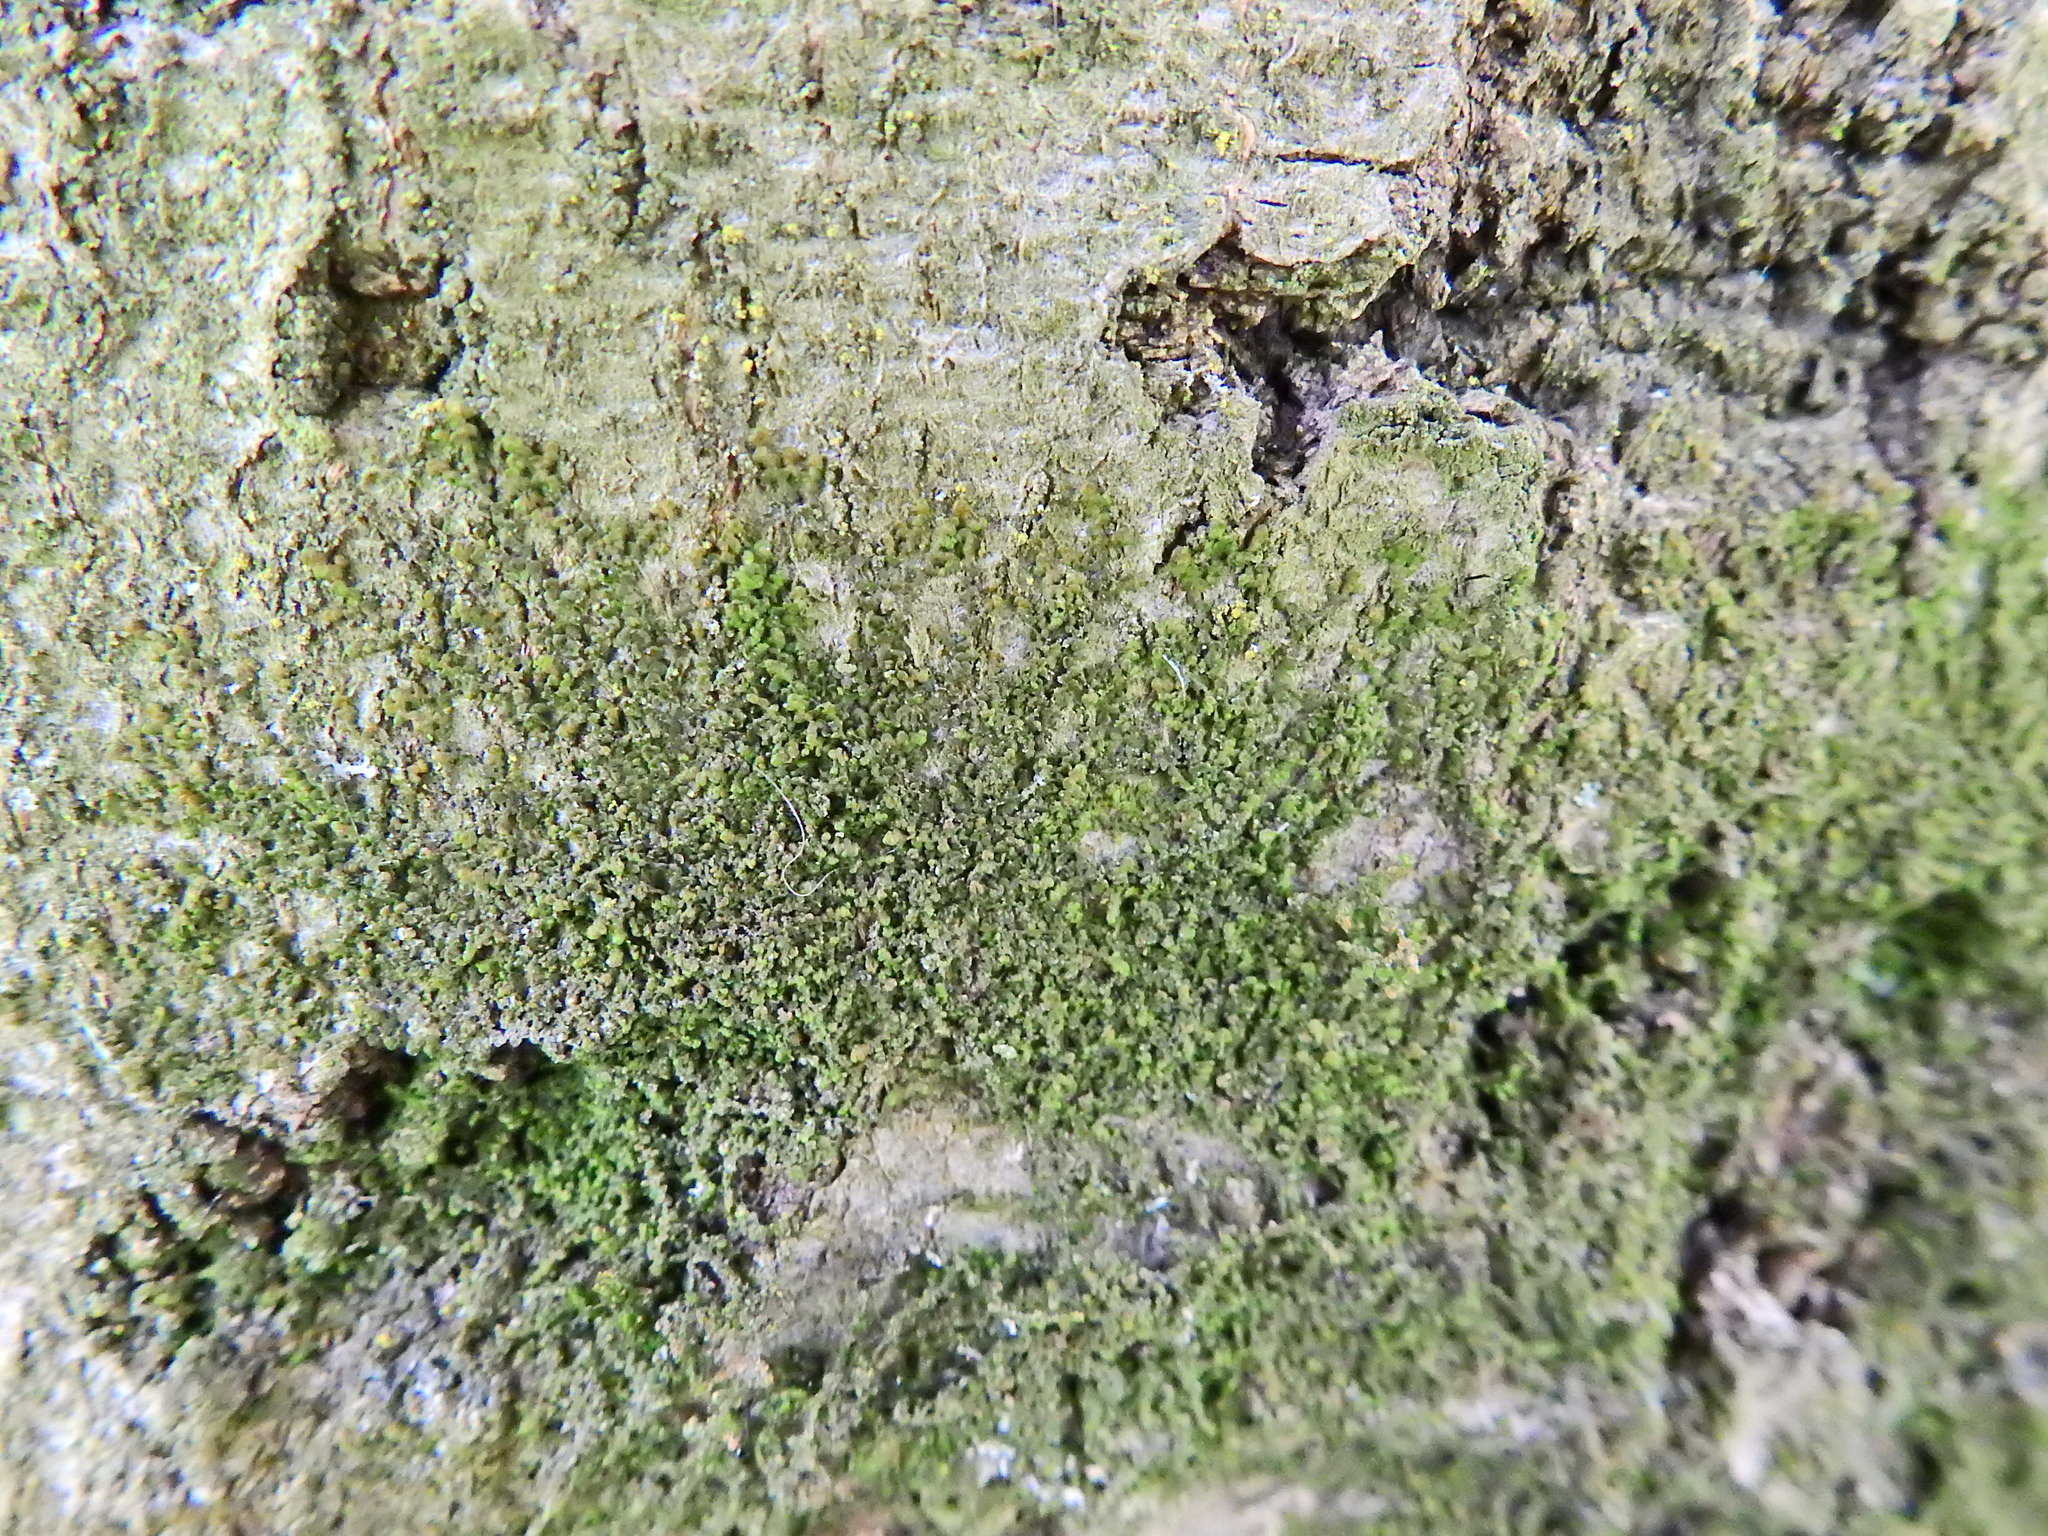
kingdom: Plantae
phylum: Marchantiophyta
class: Jungermanniopsida
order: Porellales
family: Frullaniaceae
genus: Frullania
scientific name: Frullania dilatata
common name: Dilated scalewort
